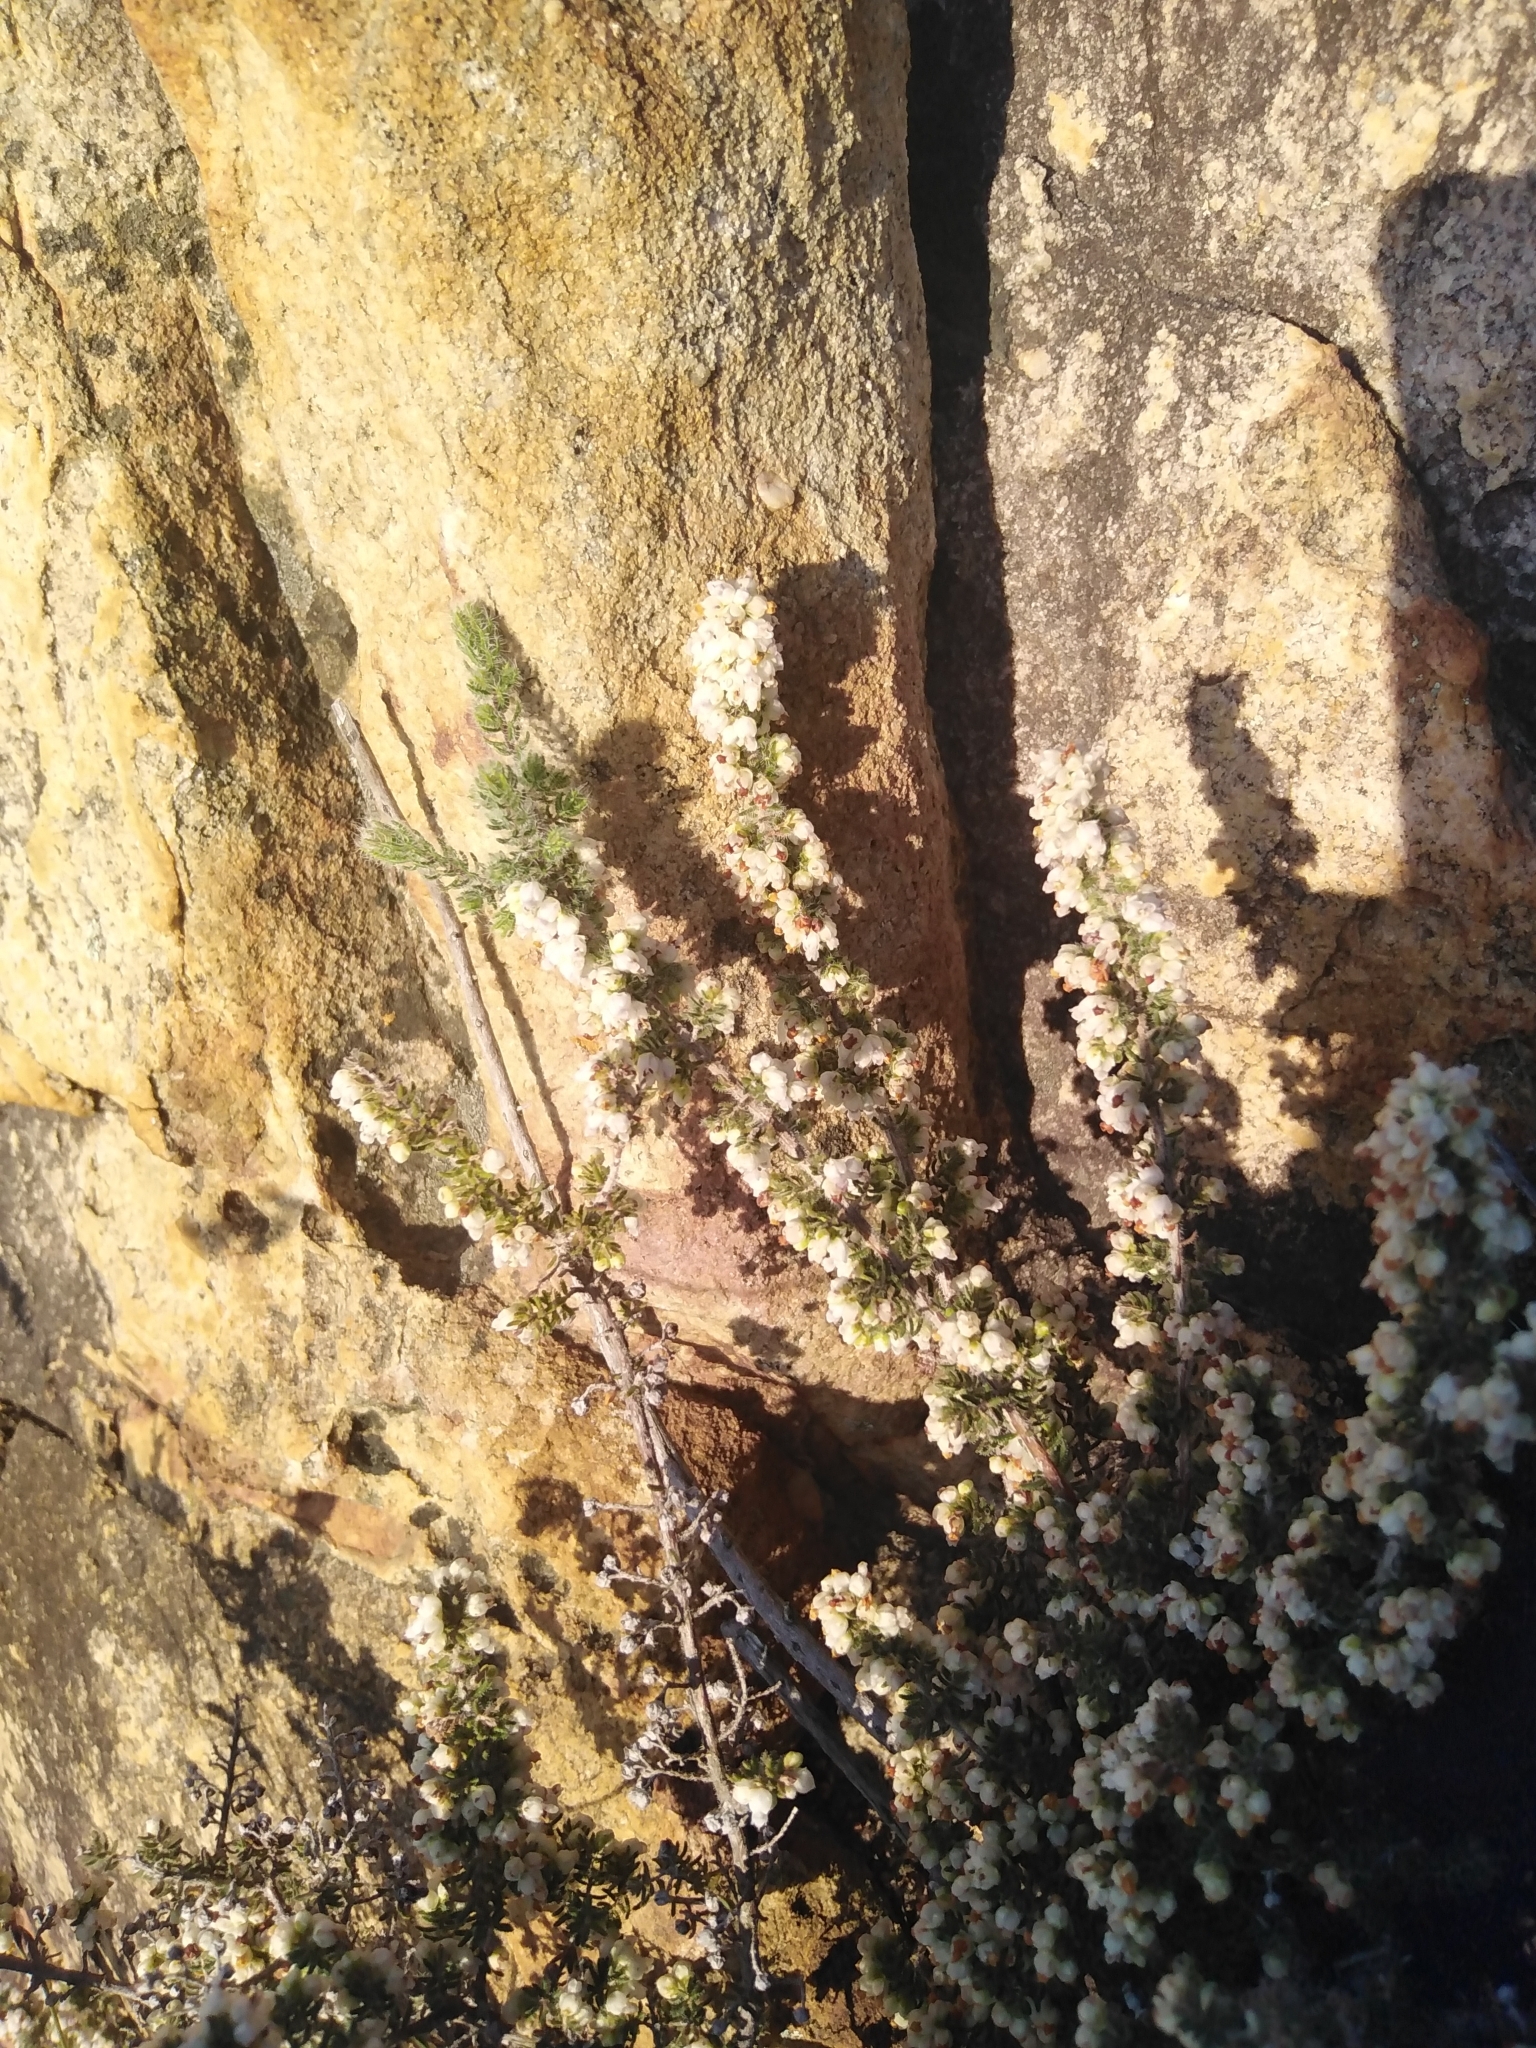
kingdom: Plantae
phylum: Tracheophyta
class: Magnoliopsida
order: Ericales
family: Ericaceae
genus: Erica
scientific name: Erica totta
